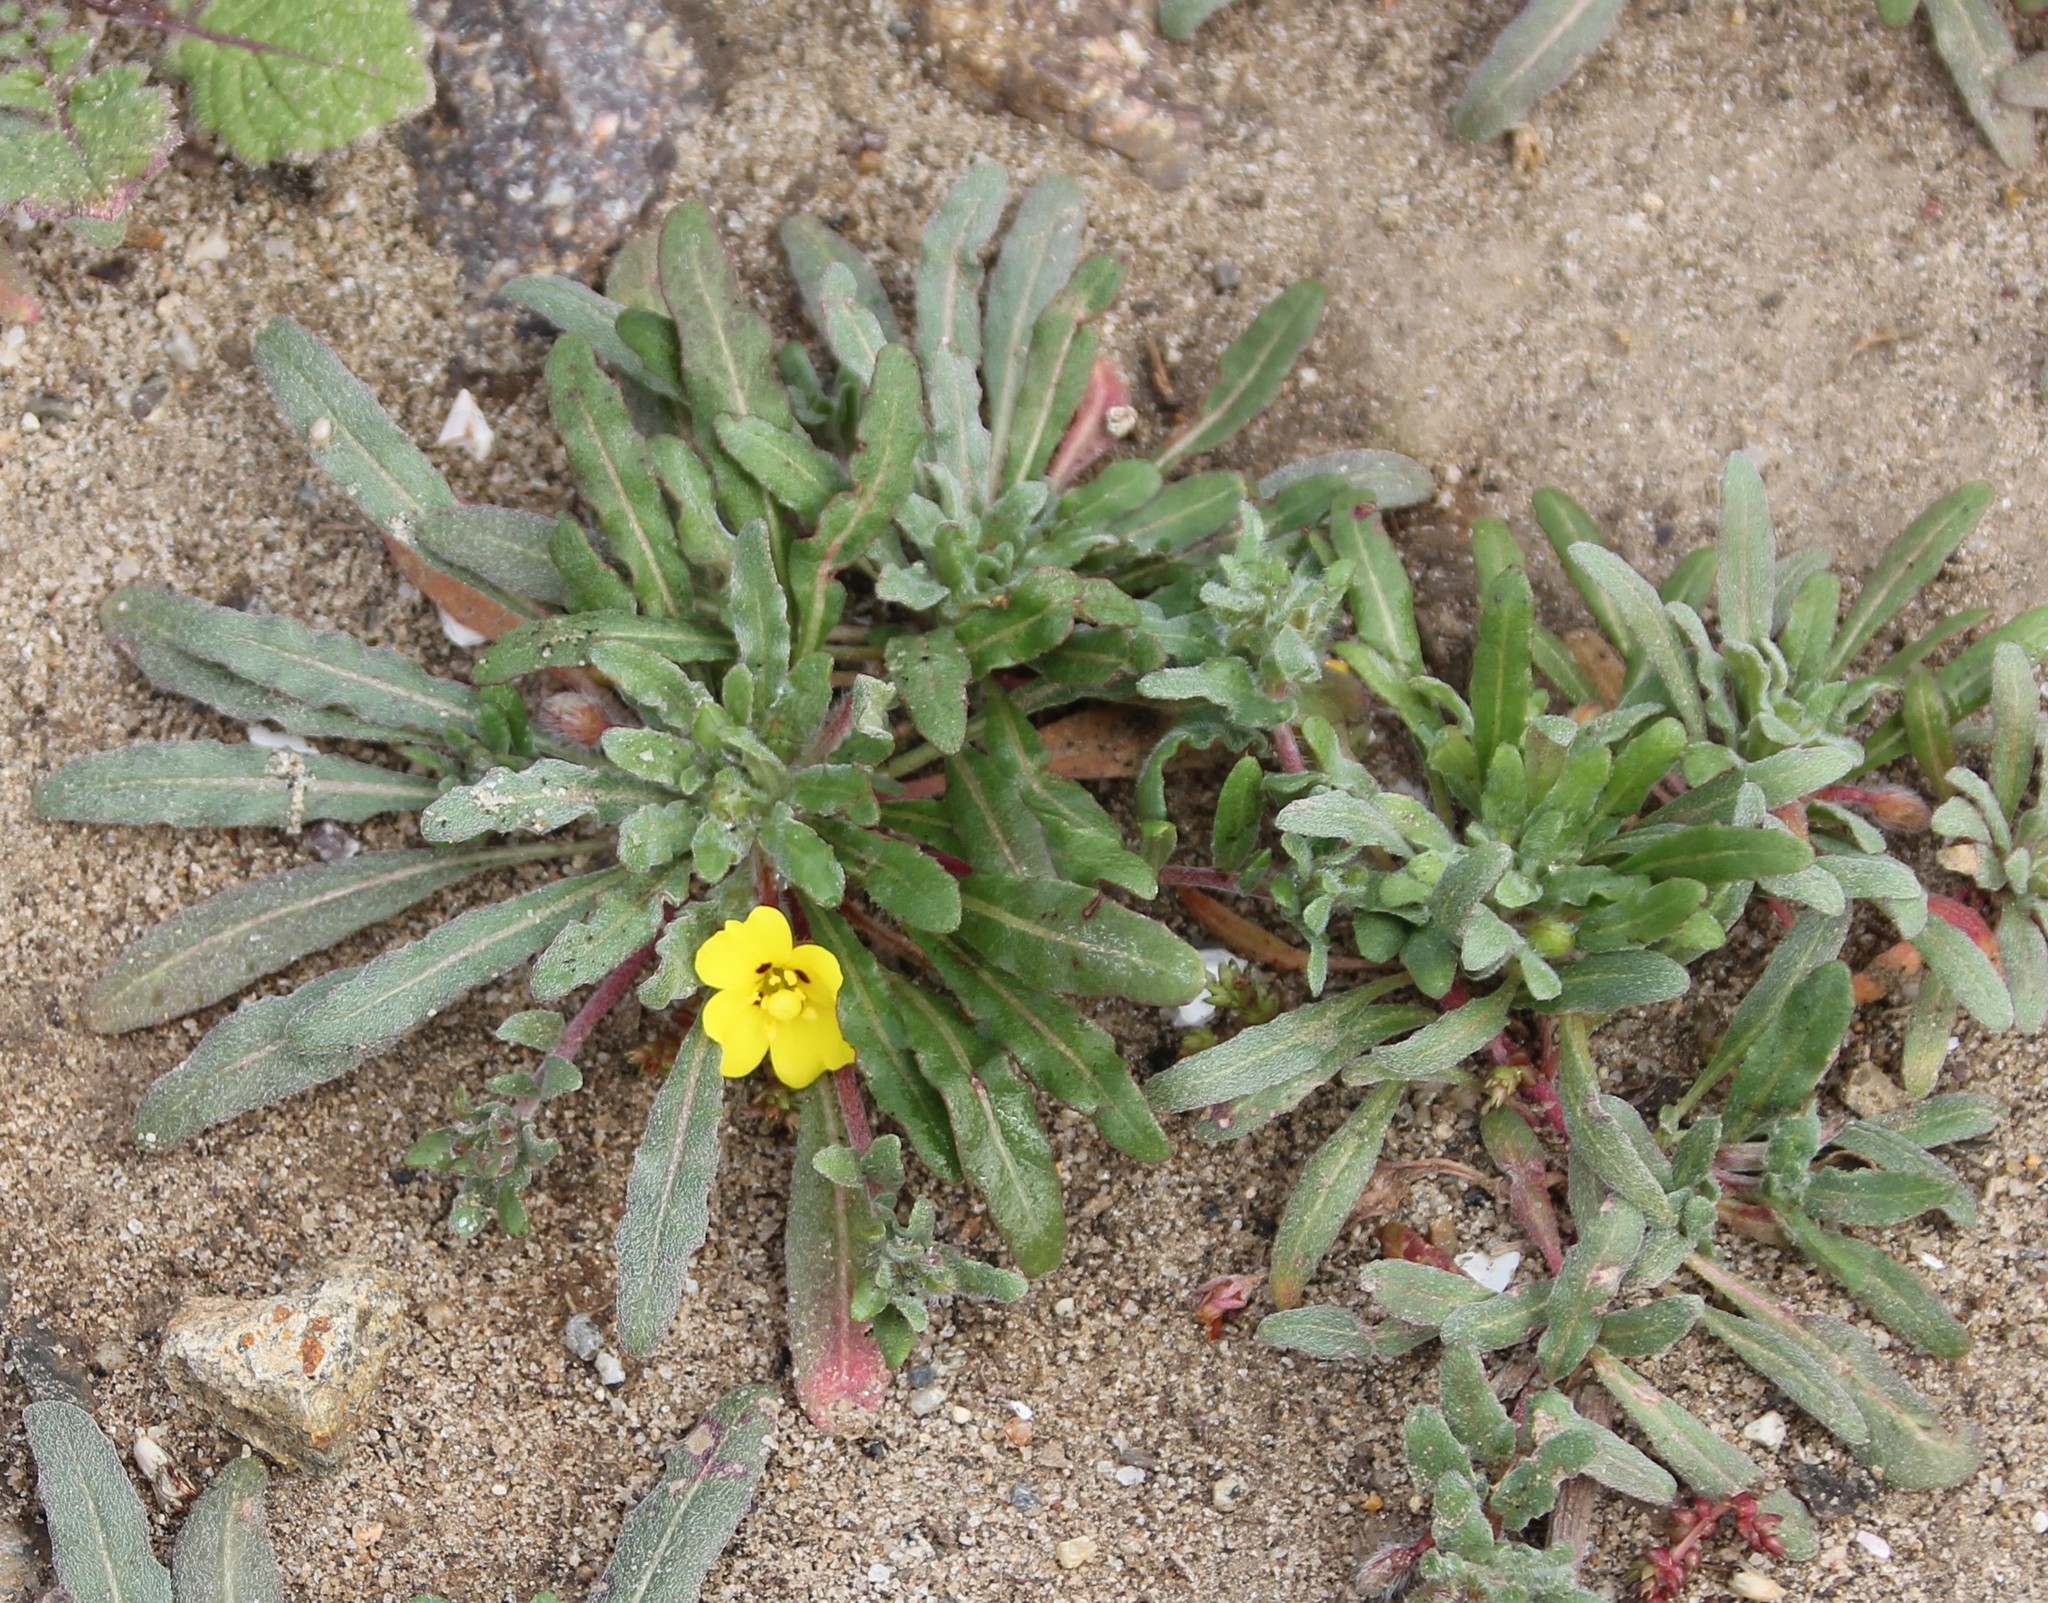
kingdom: Plantae
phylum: Tracheophyta
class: Magnoliopsida
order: Myrtales
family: Onagraceae
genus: Camissoniopsis
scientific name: Camissoniopsis bistorta
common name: Southern suncup
